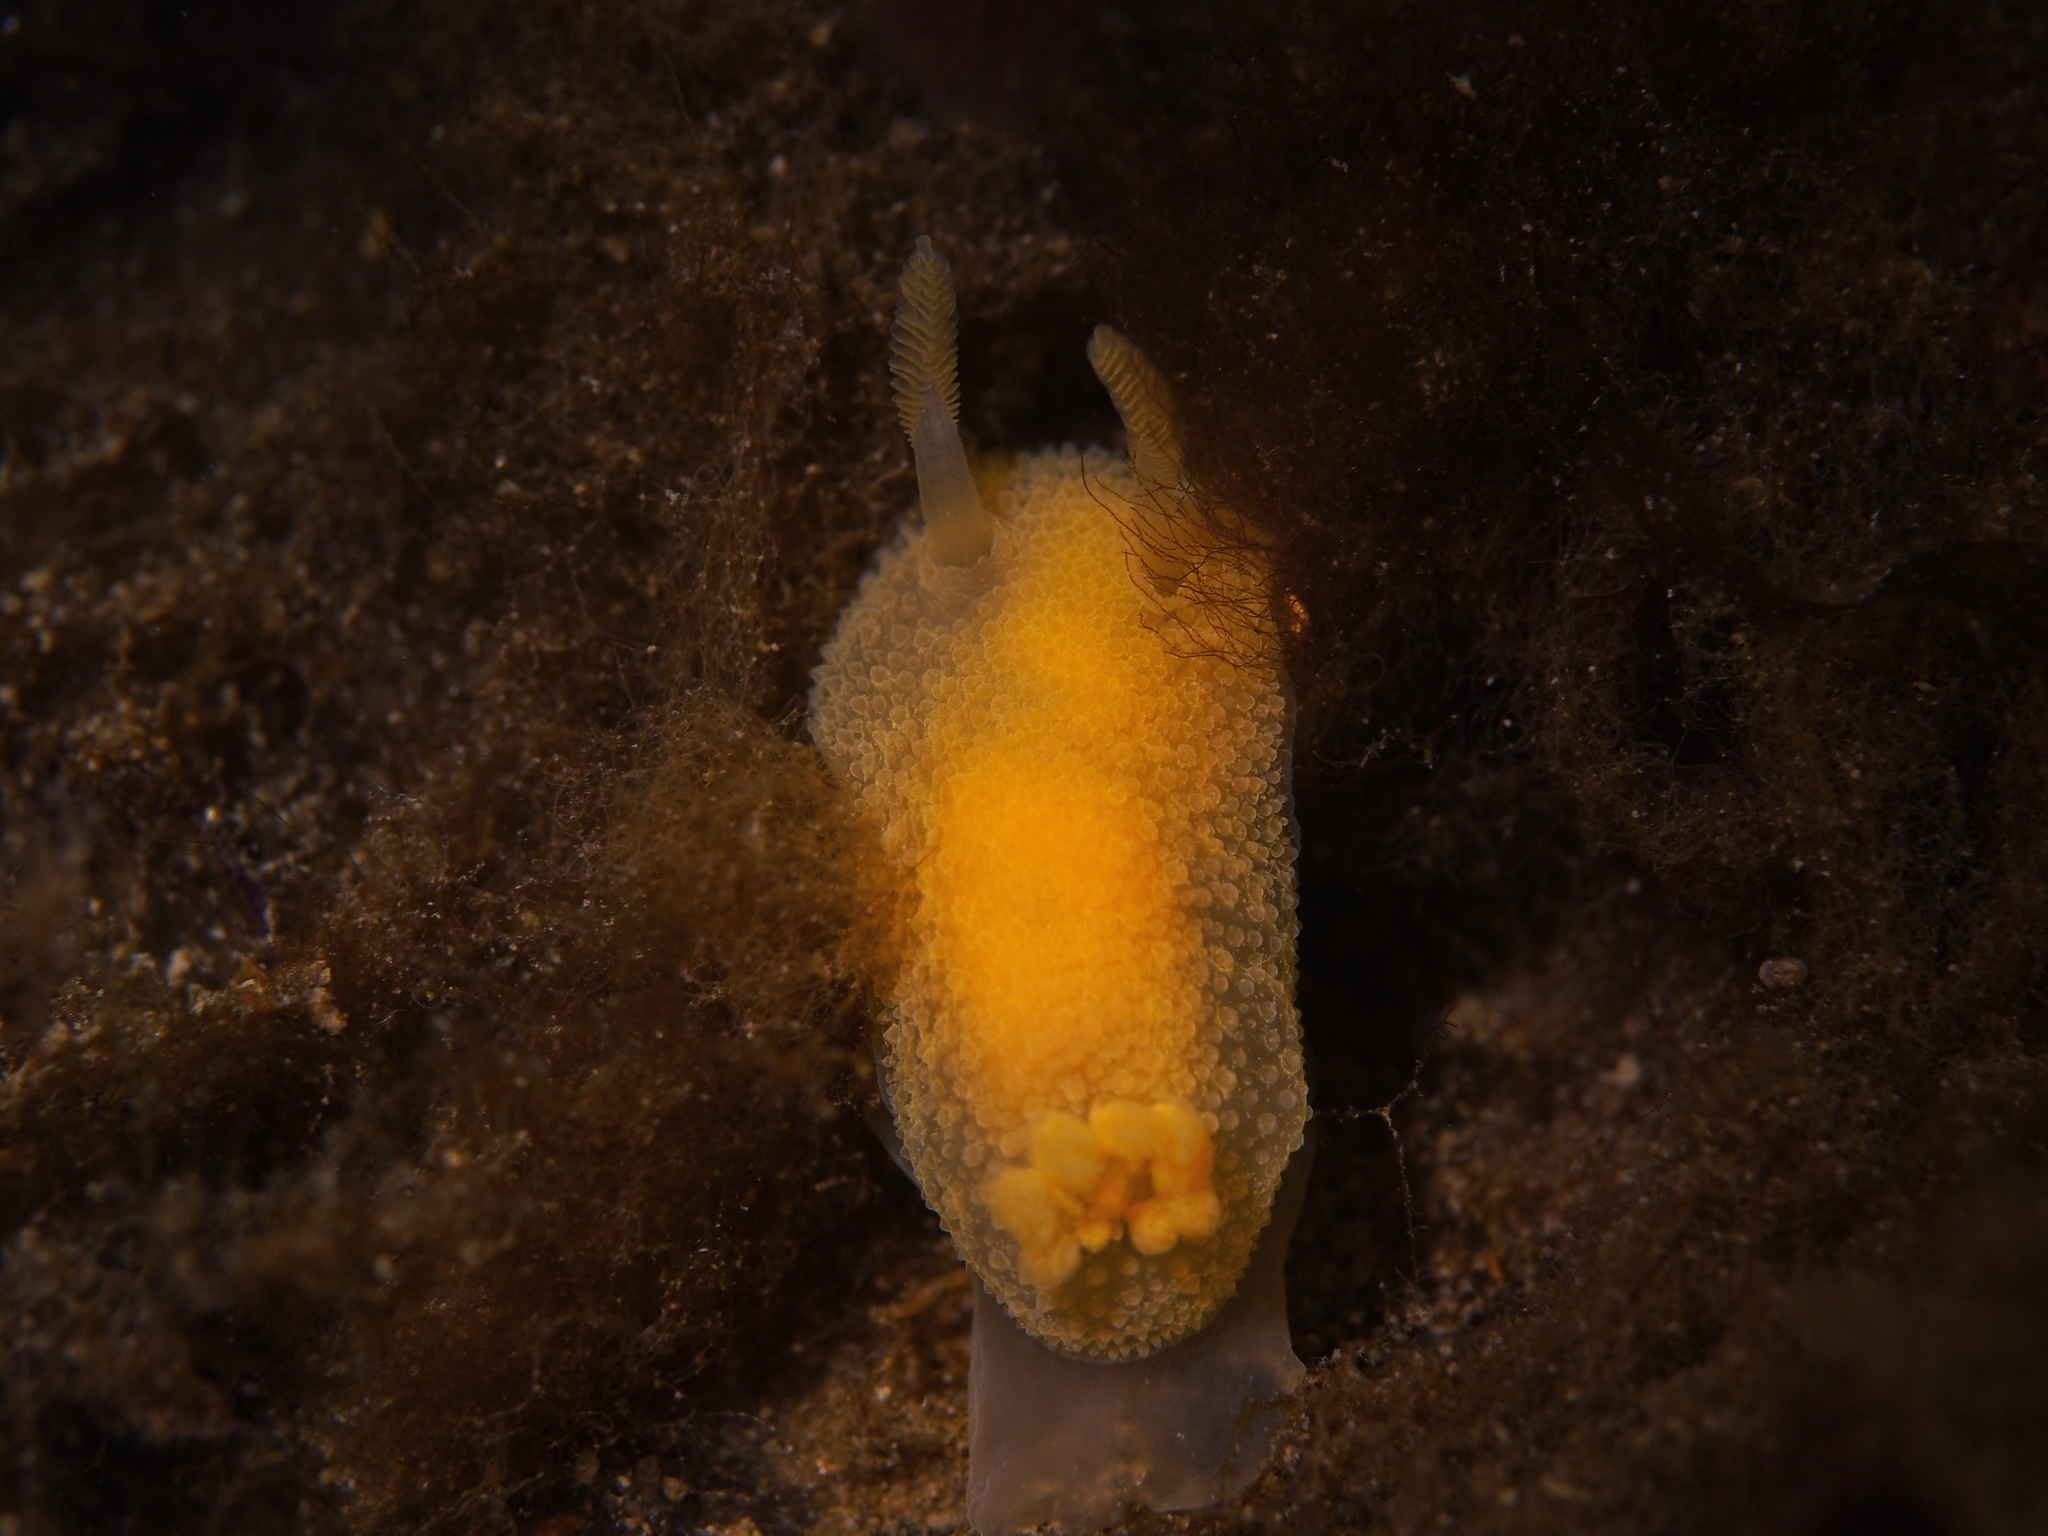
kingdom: Animalia
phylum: Mollusca
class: Gastropoda
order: Nudibranchia
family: Onchidorididae
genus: Acanthodoris
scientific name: Acanthodoris pilosa
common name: Hairy spiny doris
